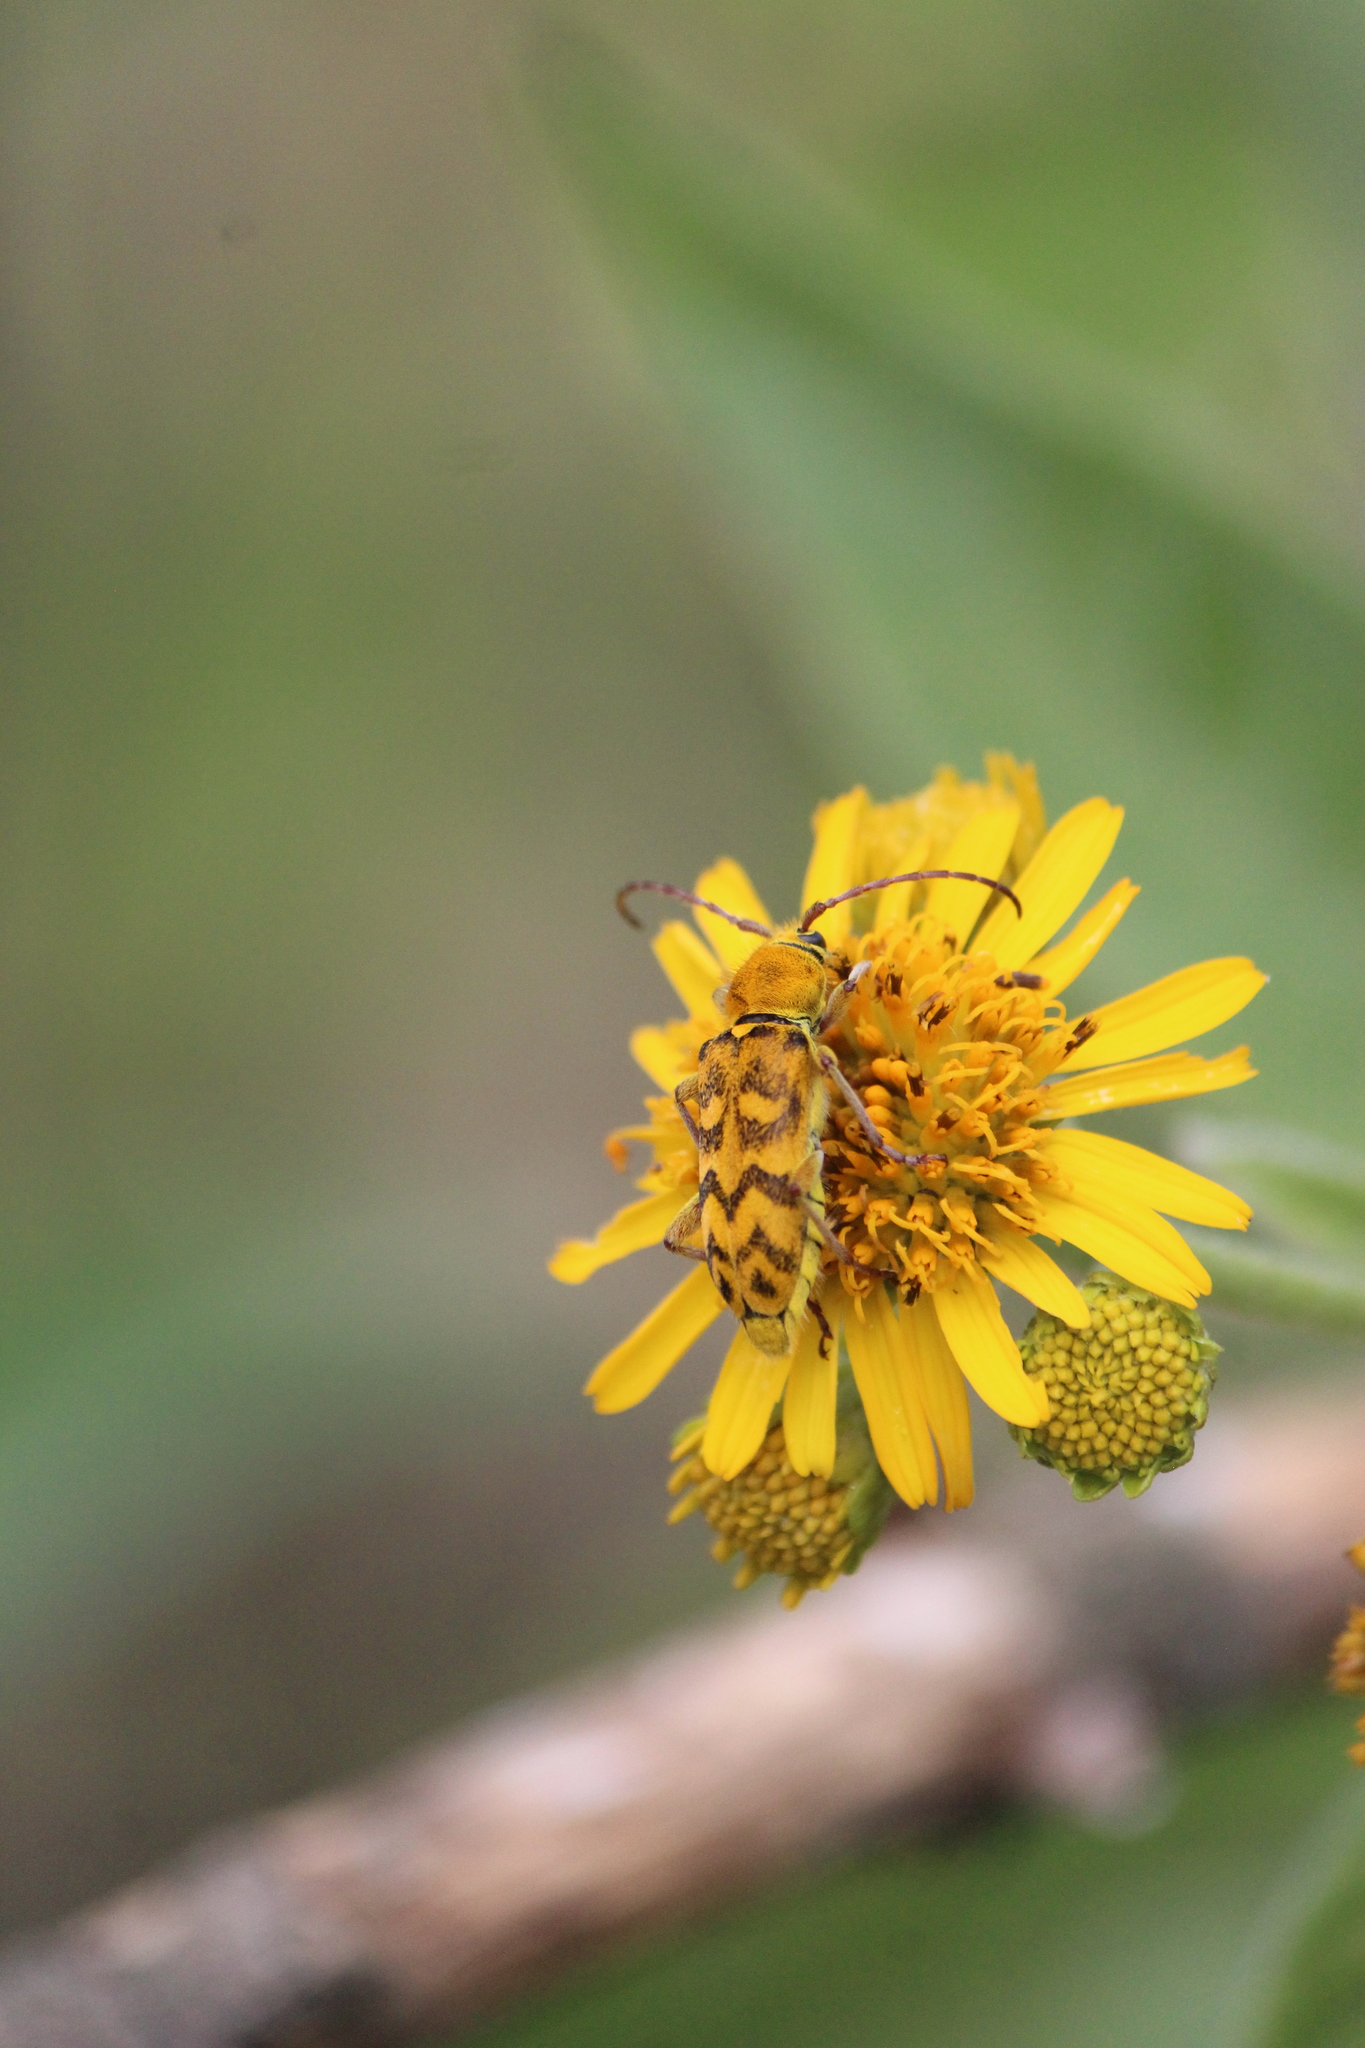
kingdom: Animalia
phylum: Arthropoda
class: Insecta
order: Coleoptera
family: Cerambycidae
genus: Ochraethes
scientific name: Ochraethes tulensis
